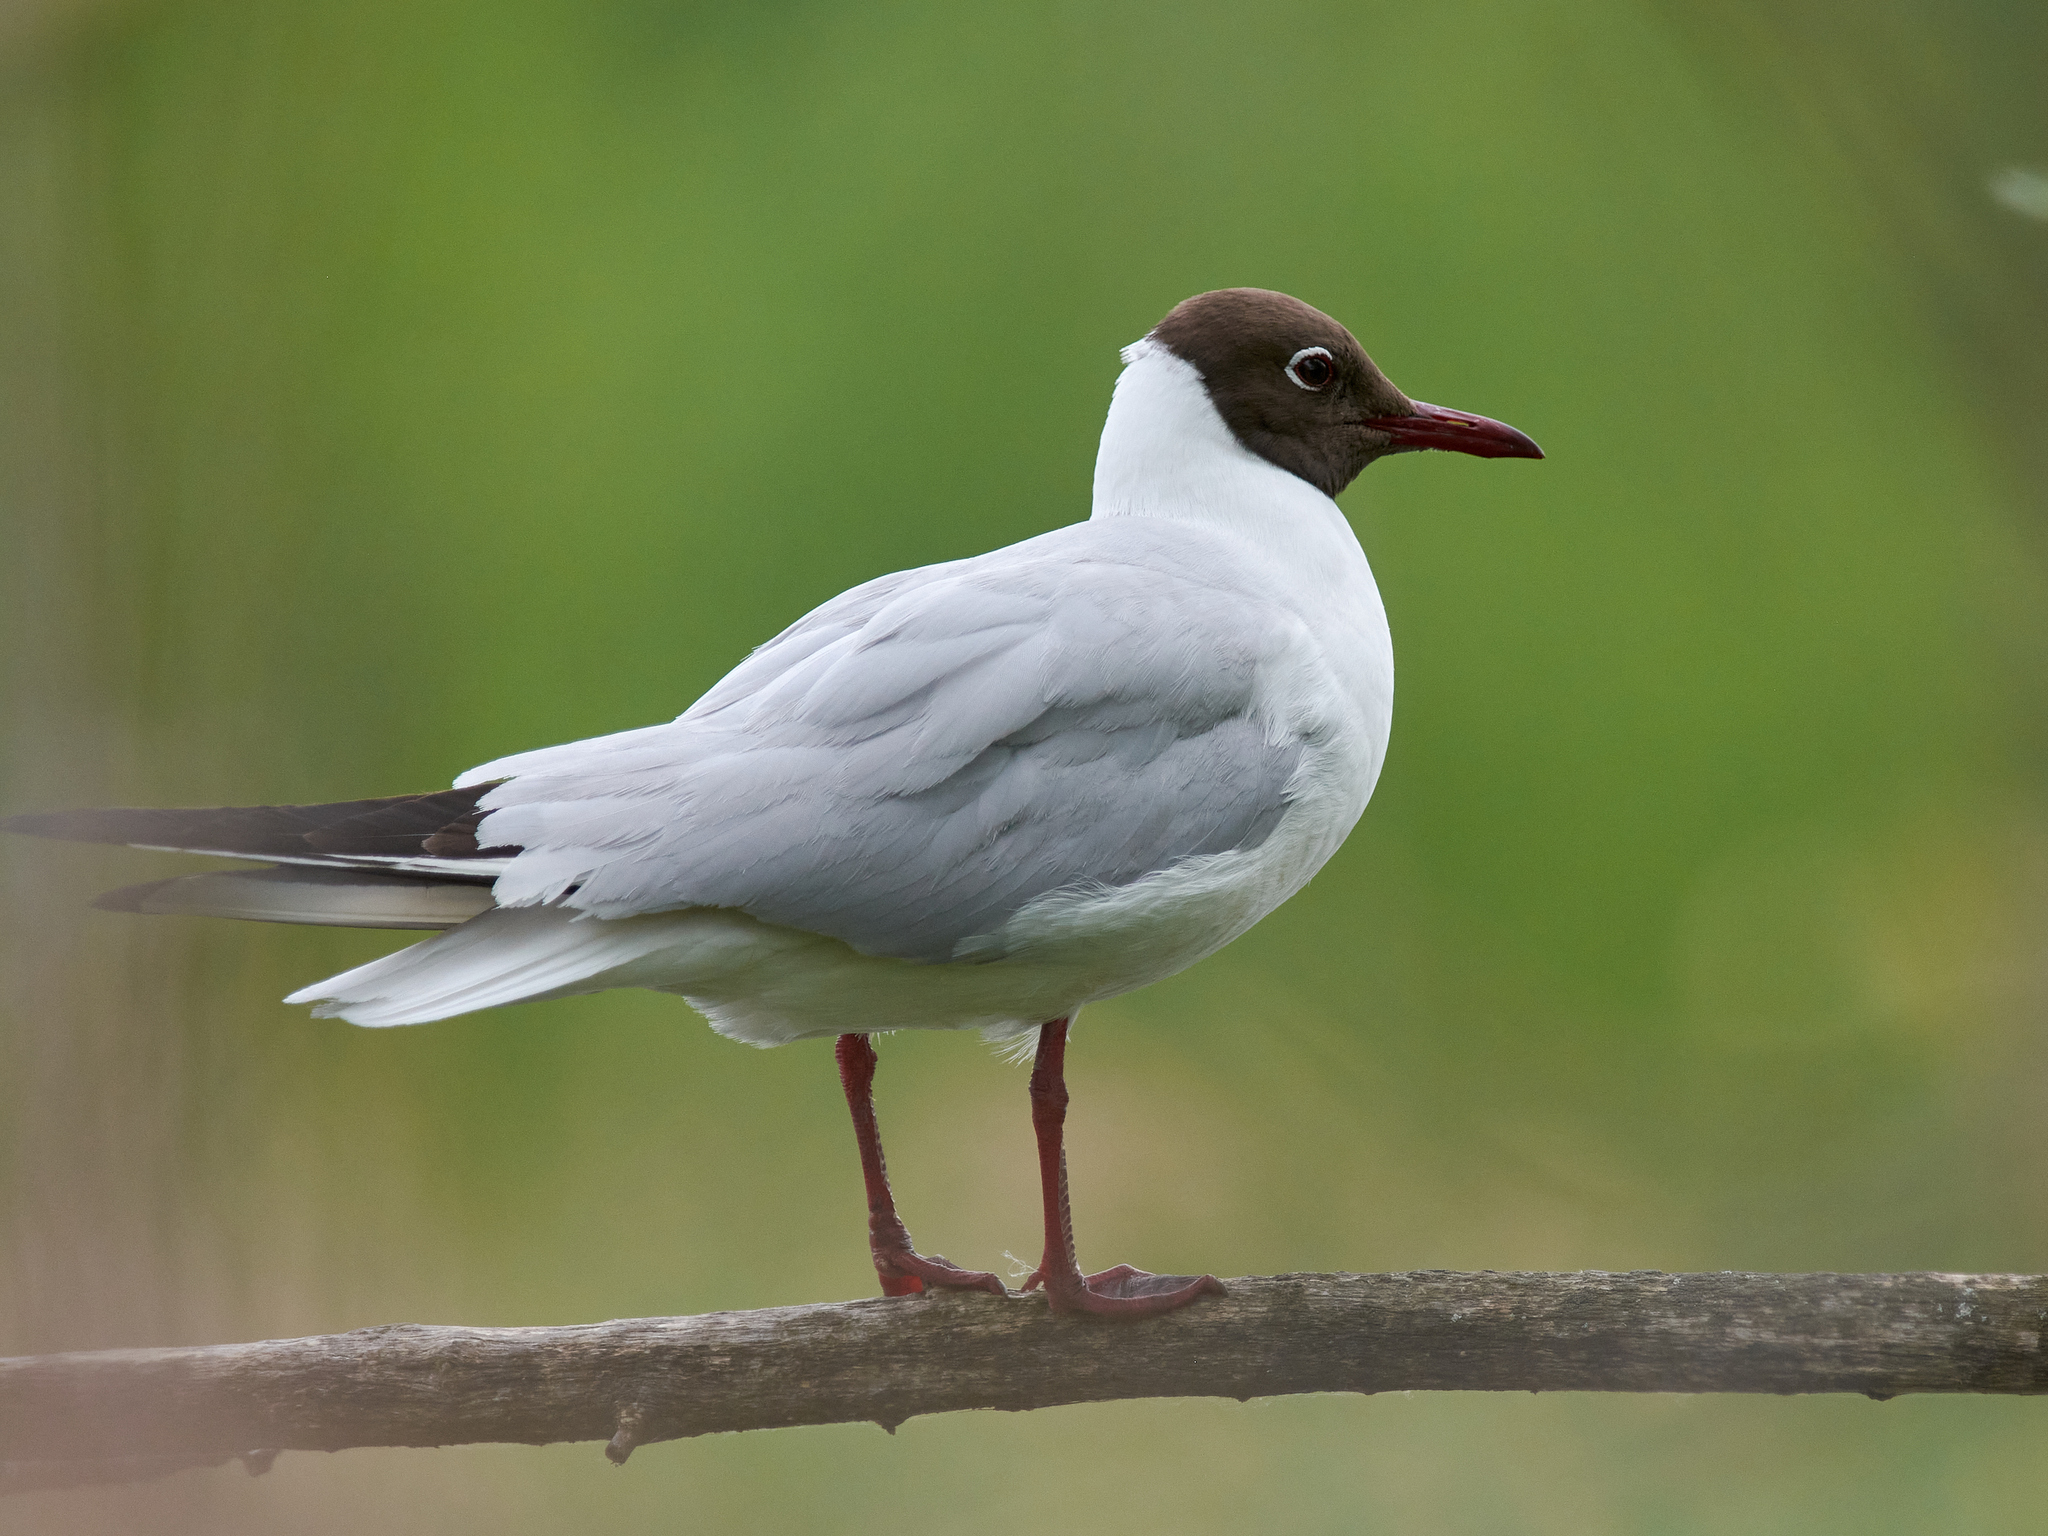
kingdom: Animalia
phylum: Chordata
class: Aves
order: Charadriiformes
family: Laridae
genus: Chroicocephalus
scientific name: Chroicocephalus ridibundus
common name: Black-headed gull
